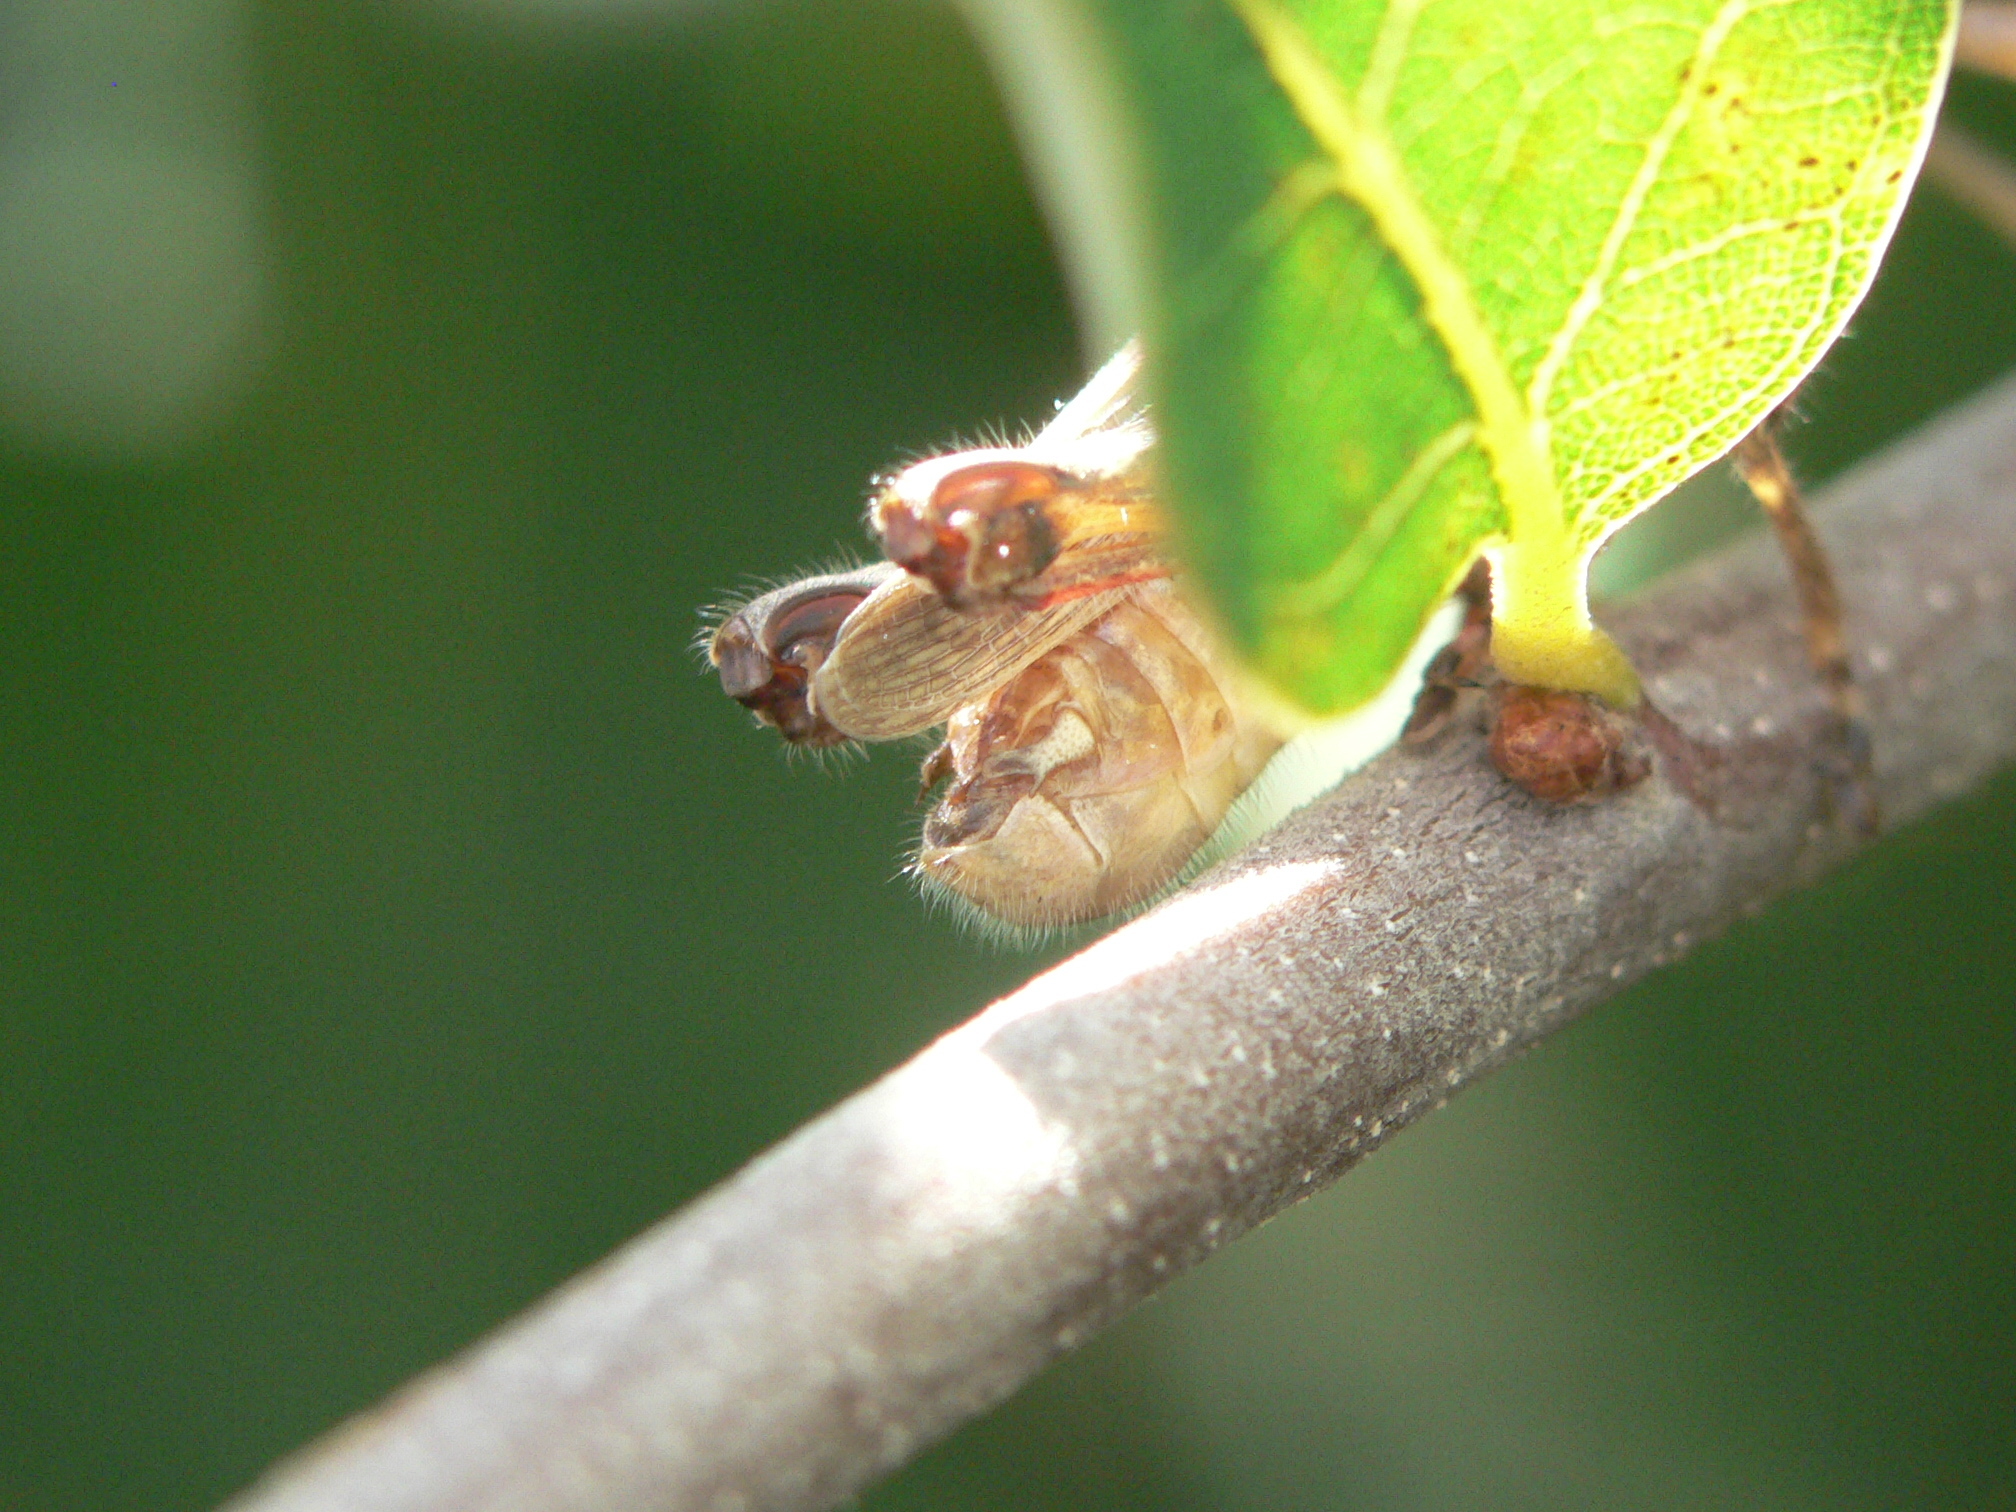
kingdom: Animalia
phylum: Arthropoda
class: Insecta
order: Orthoptera
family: Acrididae
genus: Melanoplus
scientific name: Melanoplus keeleri
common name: Keeler grasshopper
